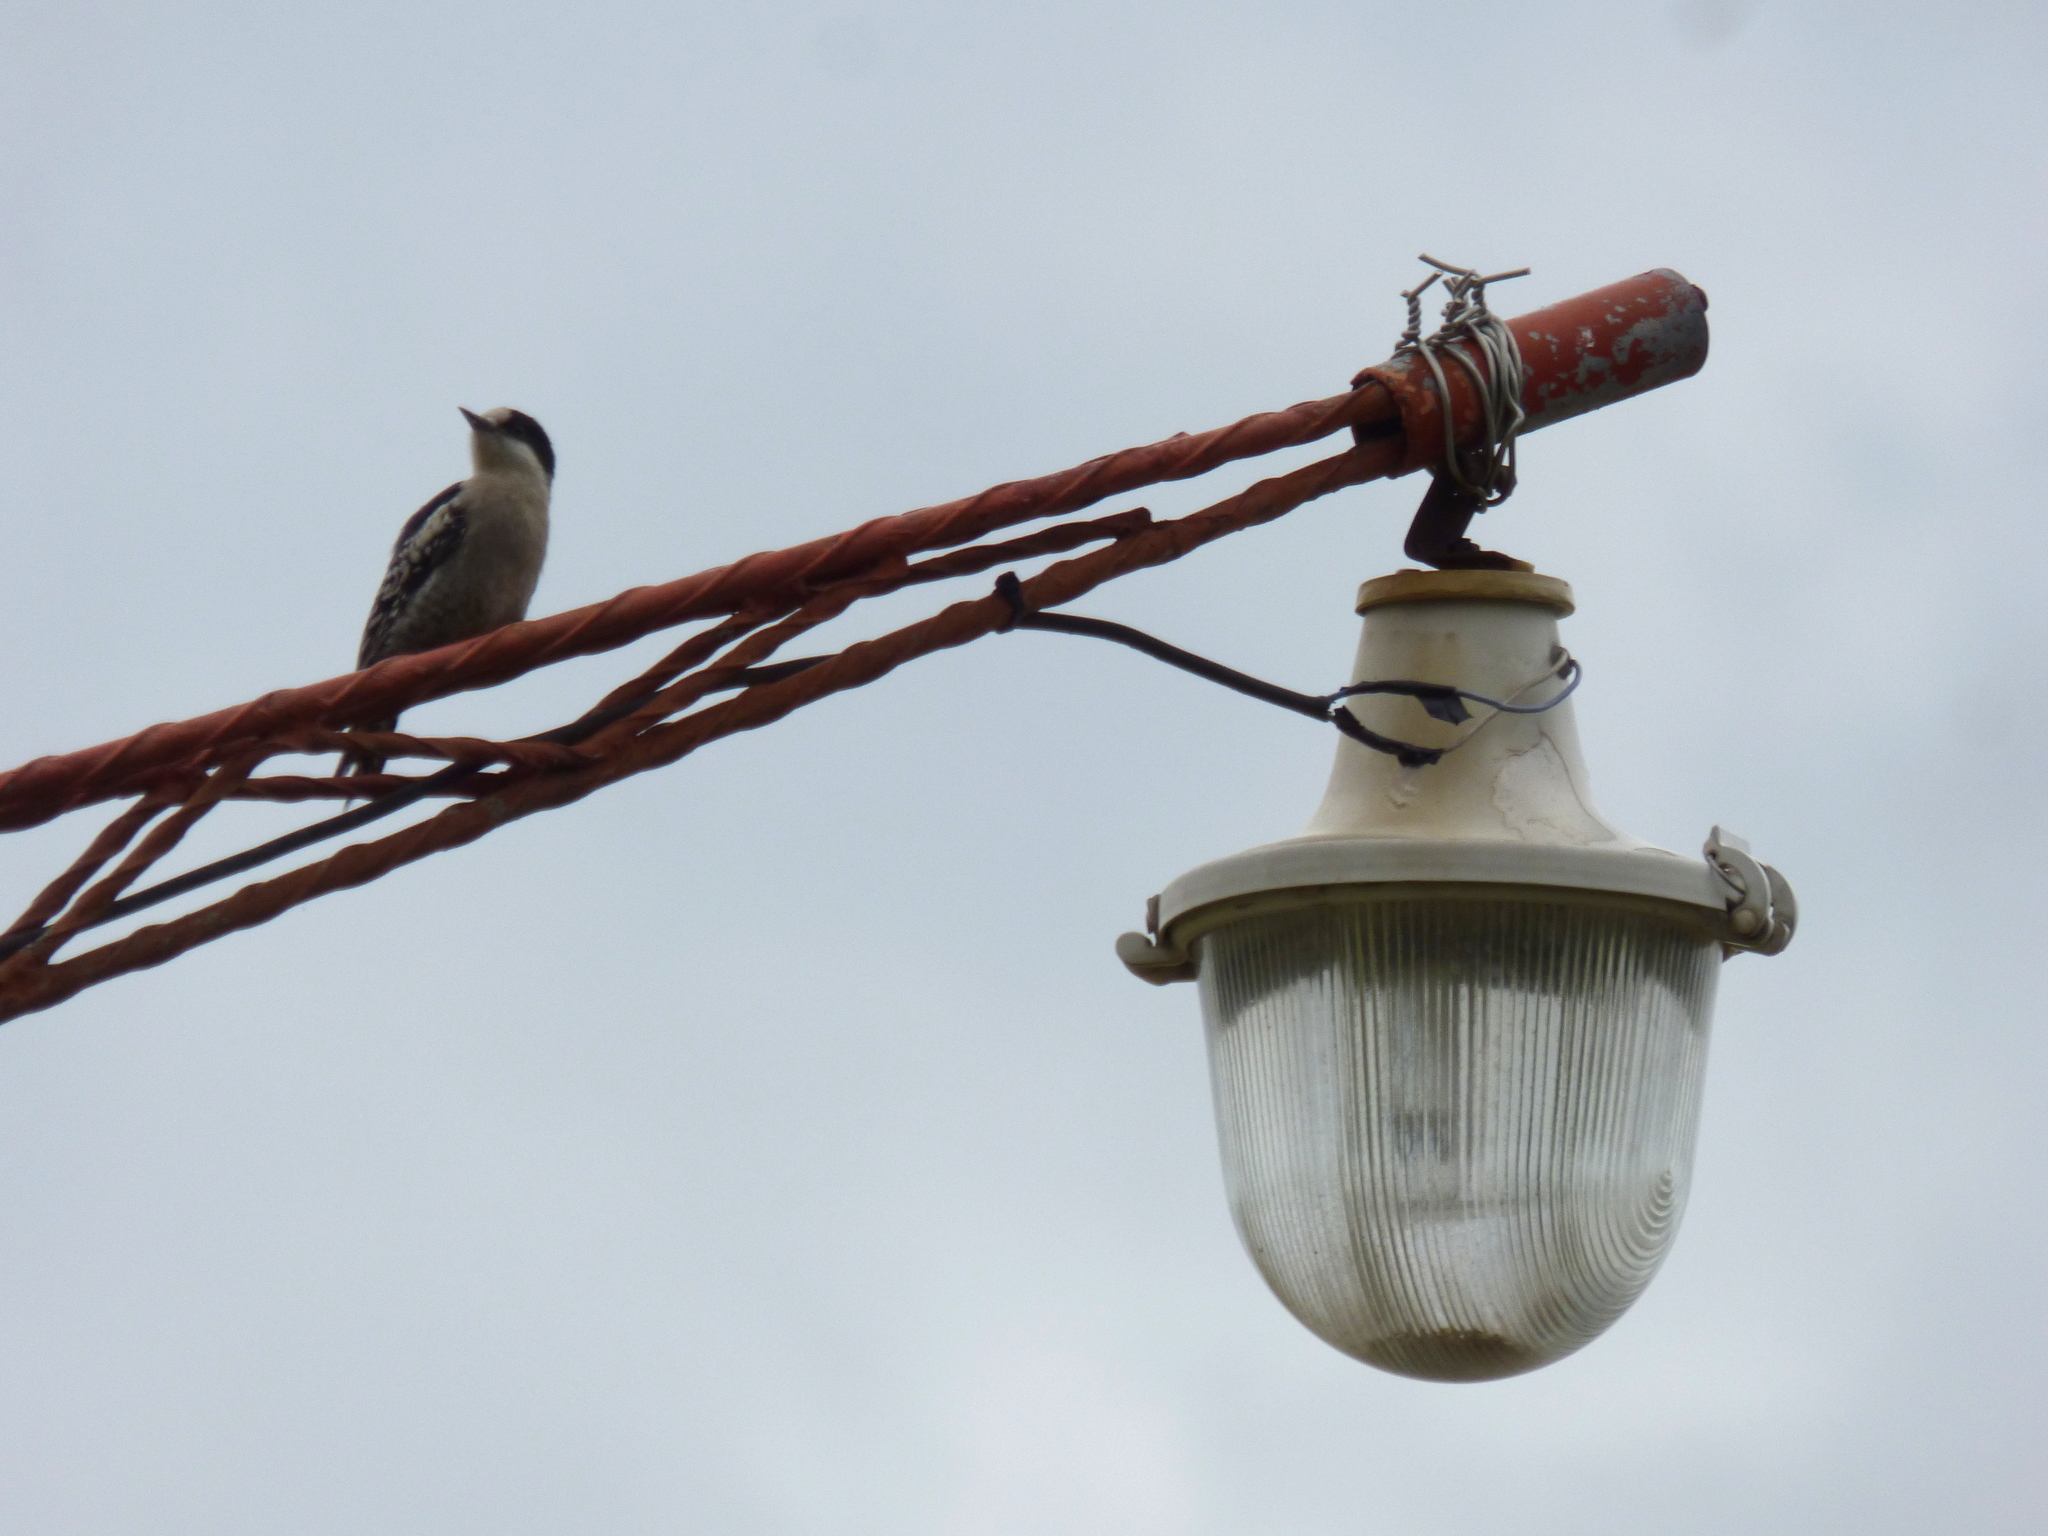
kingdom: Animalia
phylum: Chordata
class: Aves
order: Piciformes
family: Picidae
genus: Melanerpes
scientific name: Melanerpes cactorum
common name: White-fronted woodpecker
